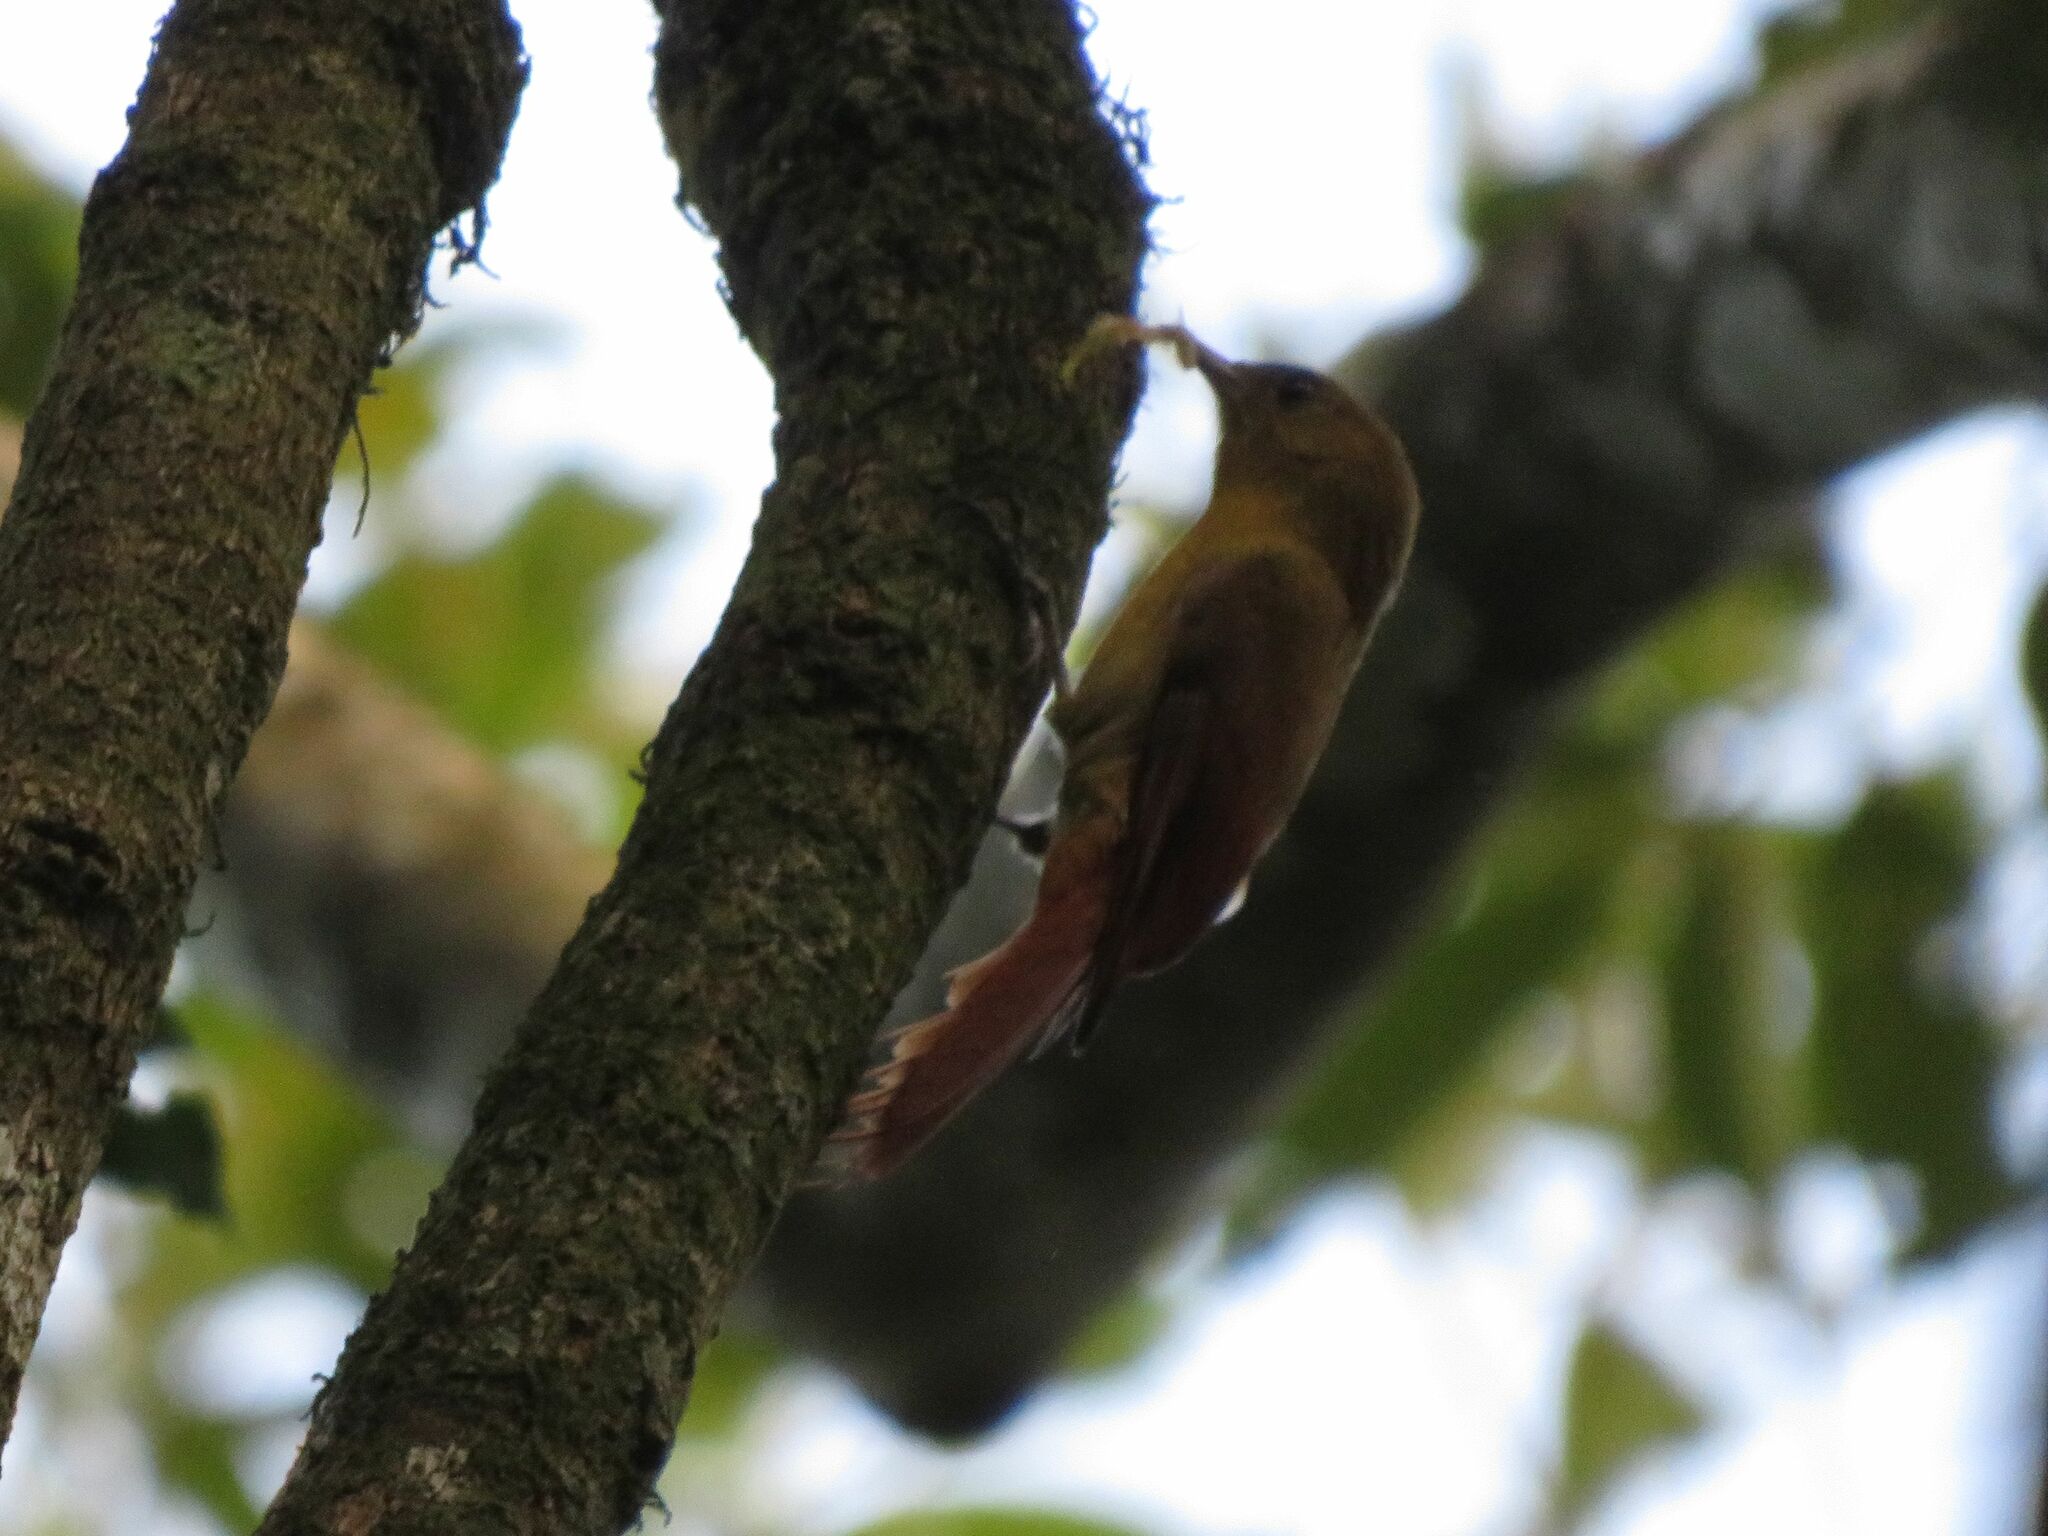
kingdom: Animalia
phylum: Chordata
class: Aves
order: Passeriformes
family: Furnariidae
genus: Sittasomus
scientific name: Sittasomus griseicapillus
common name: Olivaceous woodcreeper
